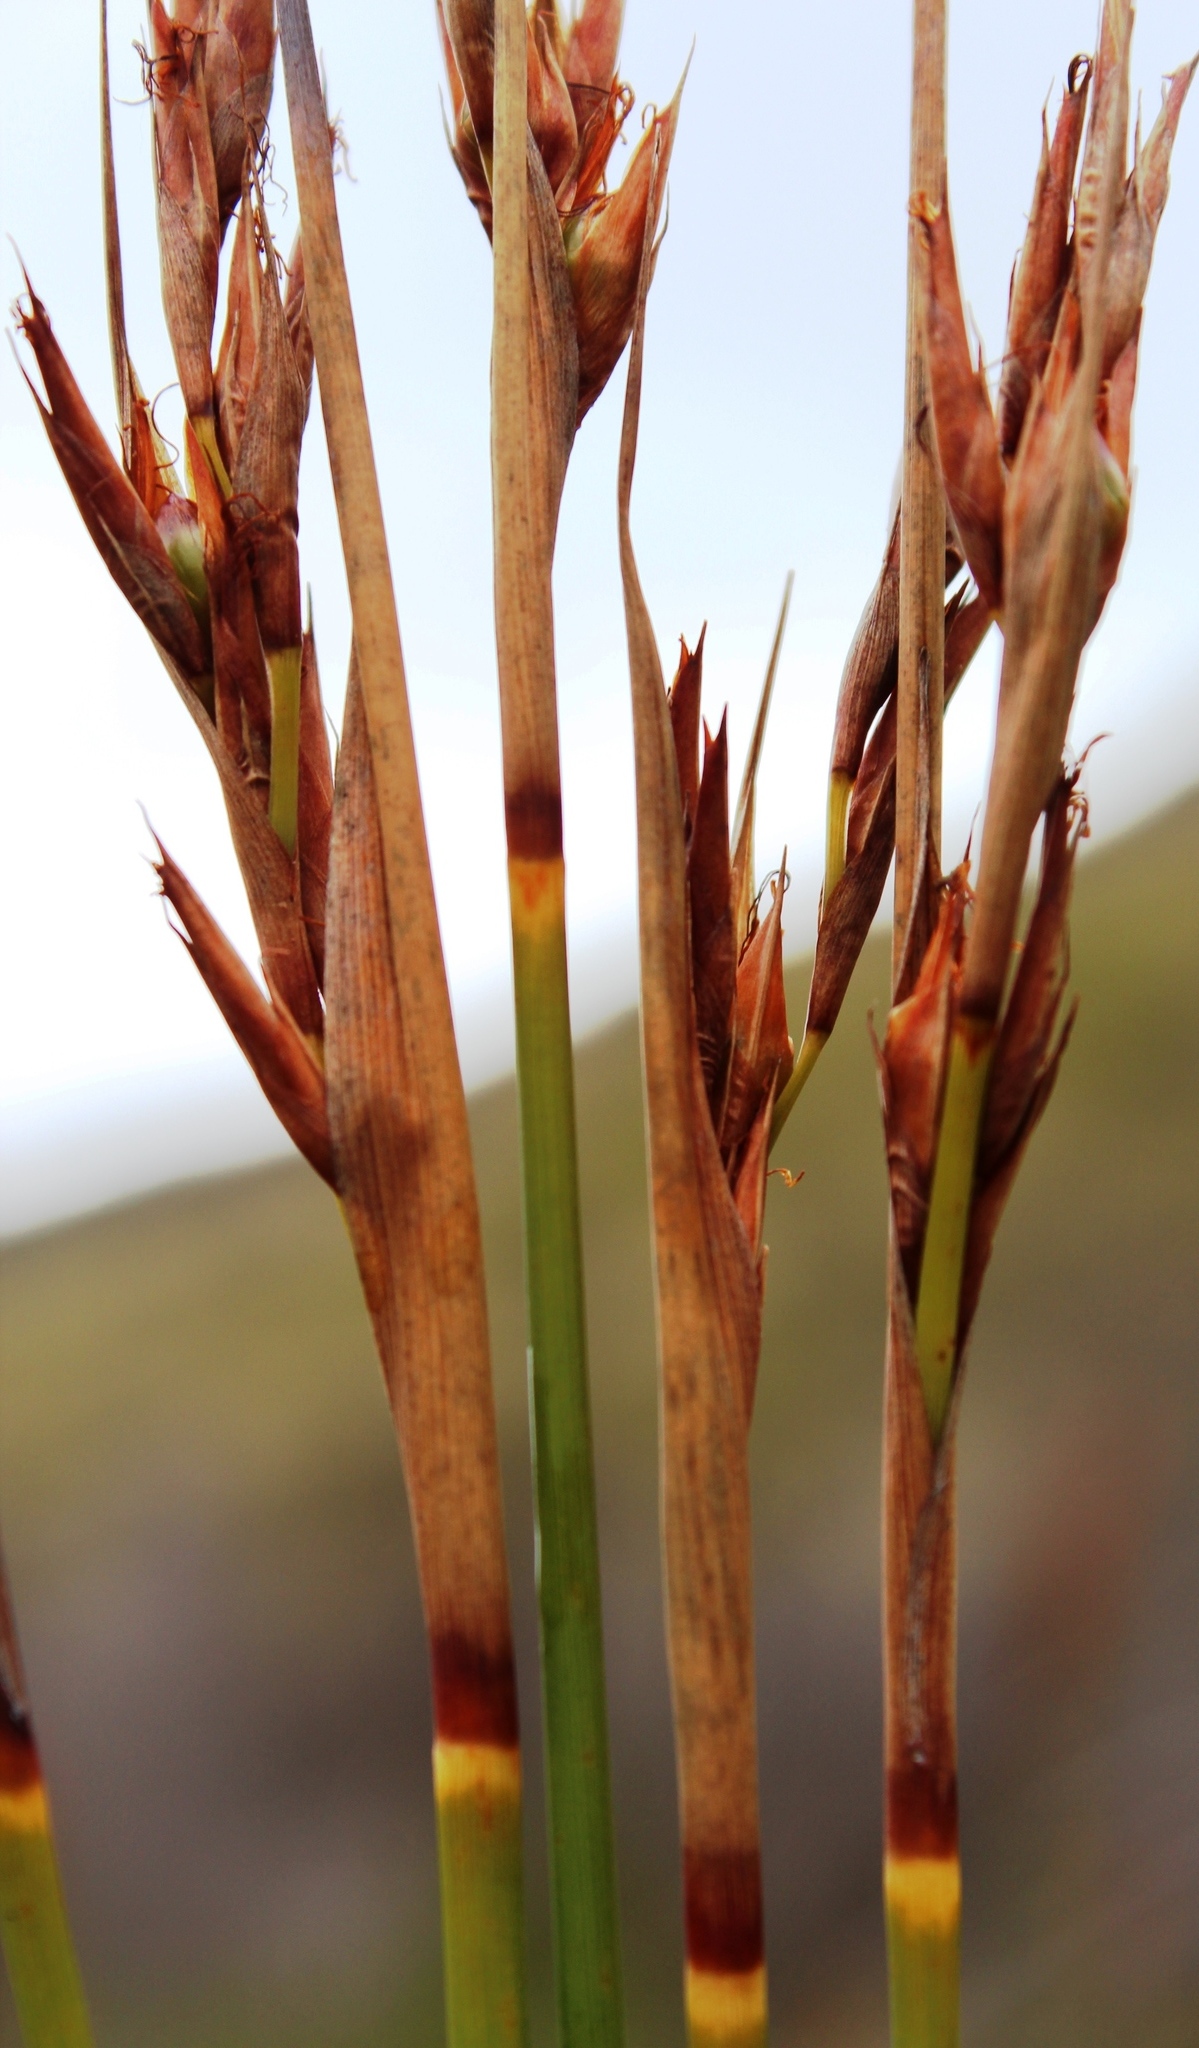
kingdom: Plantae
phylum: Tracheophyta
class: Liliopsida
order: Poales
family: Cyperaceae
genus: Schoenus
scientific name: Schoenus pseudoloreus
